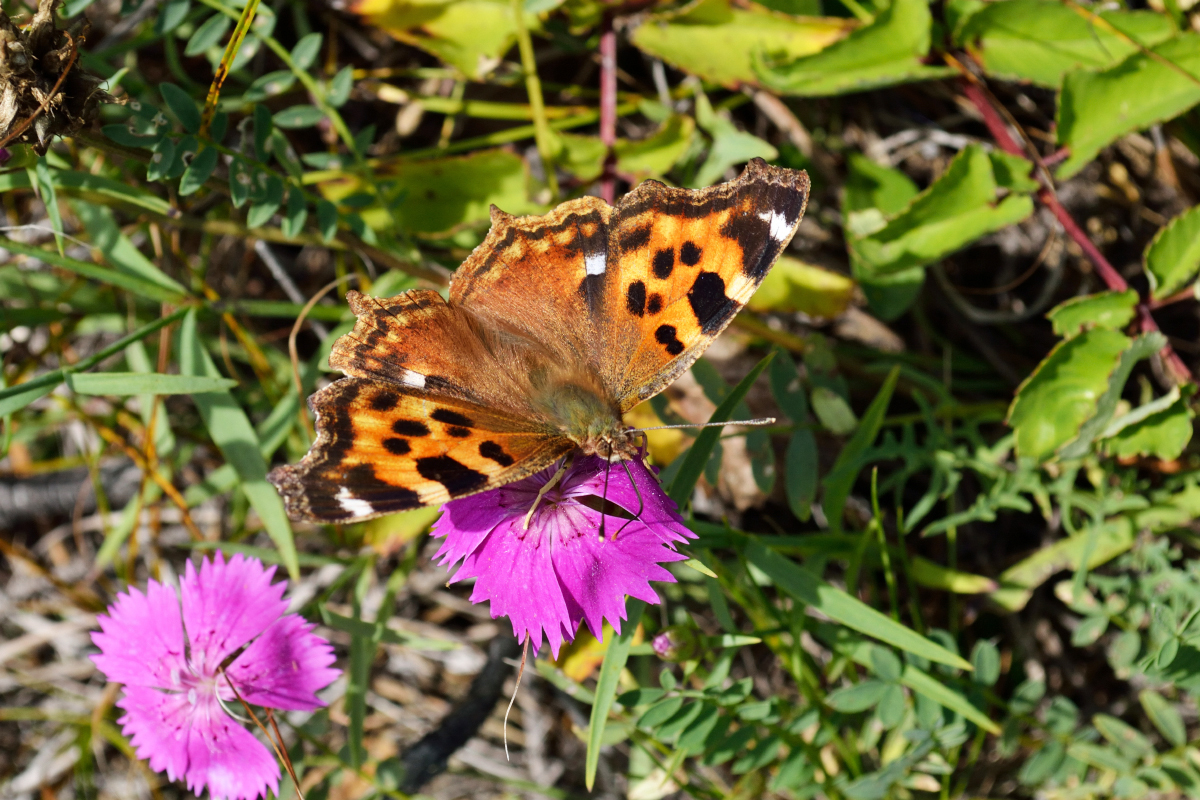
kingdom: Animalia
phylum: Arthropoda
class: Insecta
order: Lepidoptera
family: Nymphalidae
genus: Polygonia
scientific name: Polygonia vaualbum
